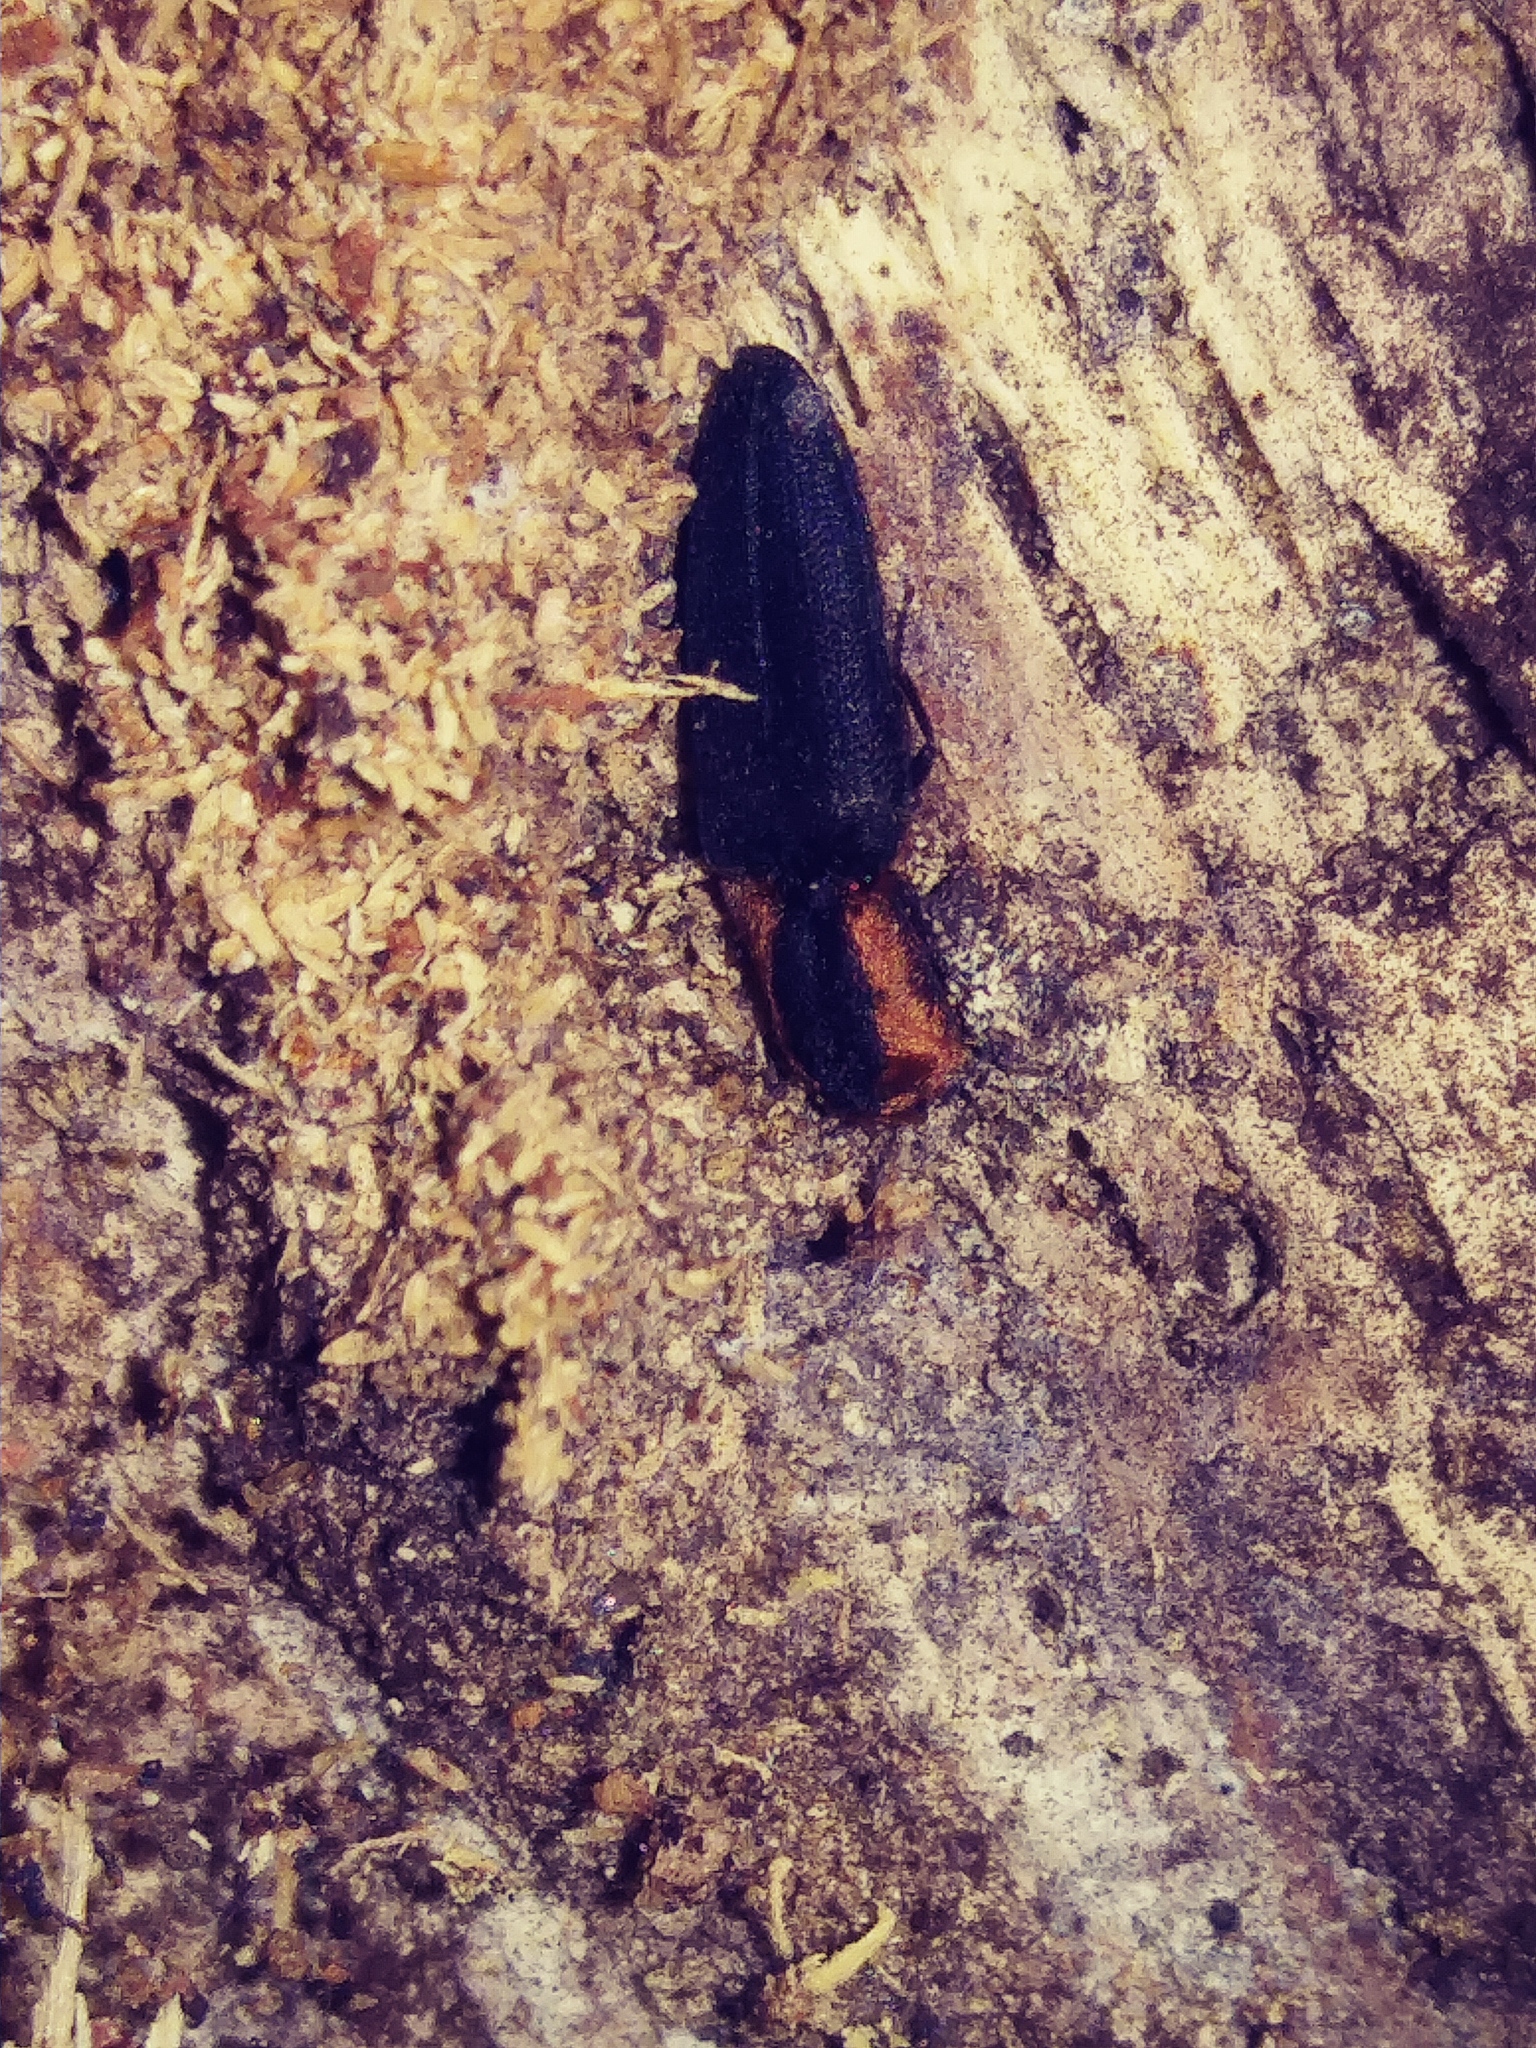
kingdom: Animalia
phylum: Arthropoda
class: Insecta
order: Coleoptera
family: Elateridae
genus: Lacon
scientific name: Lacon discoideus
